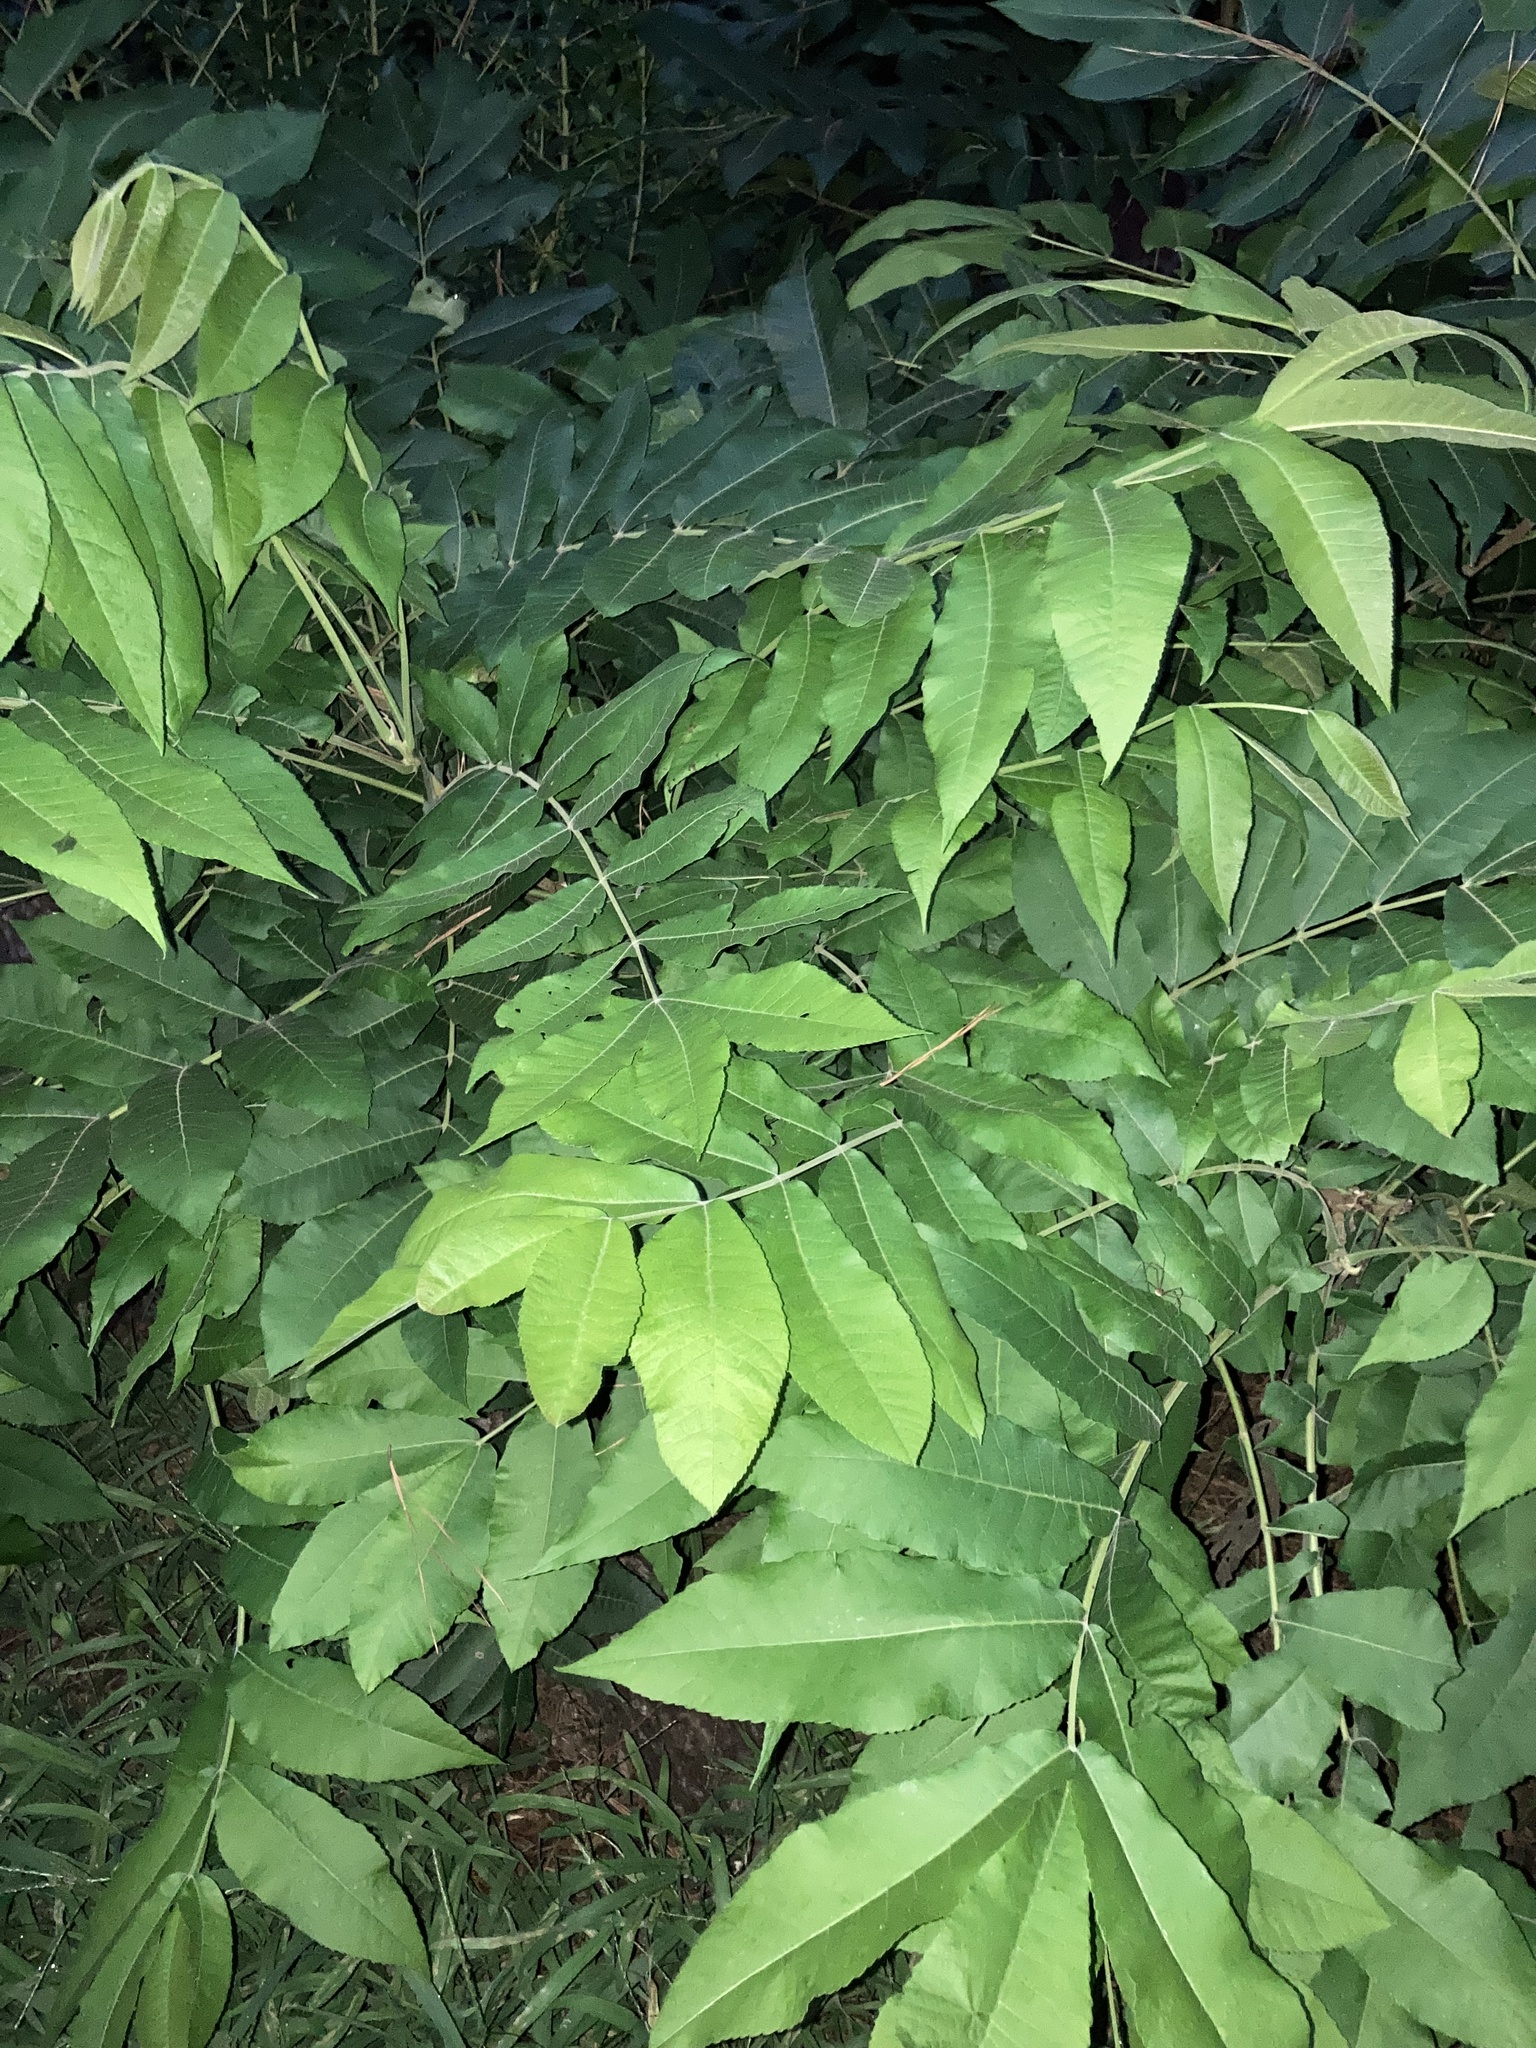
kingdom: Plantae
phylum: Tracheophyta
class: Magnoliopsida
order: Fagales
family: Juglandaceae
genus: Carya
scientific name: Carya illinoinensis
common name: Pecan
